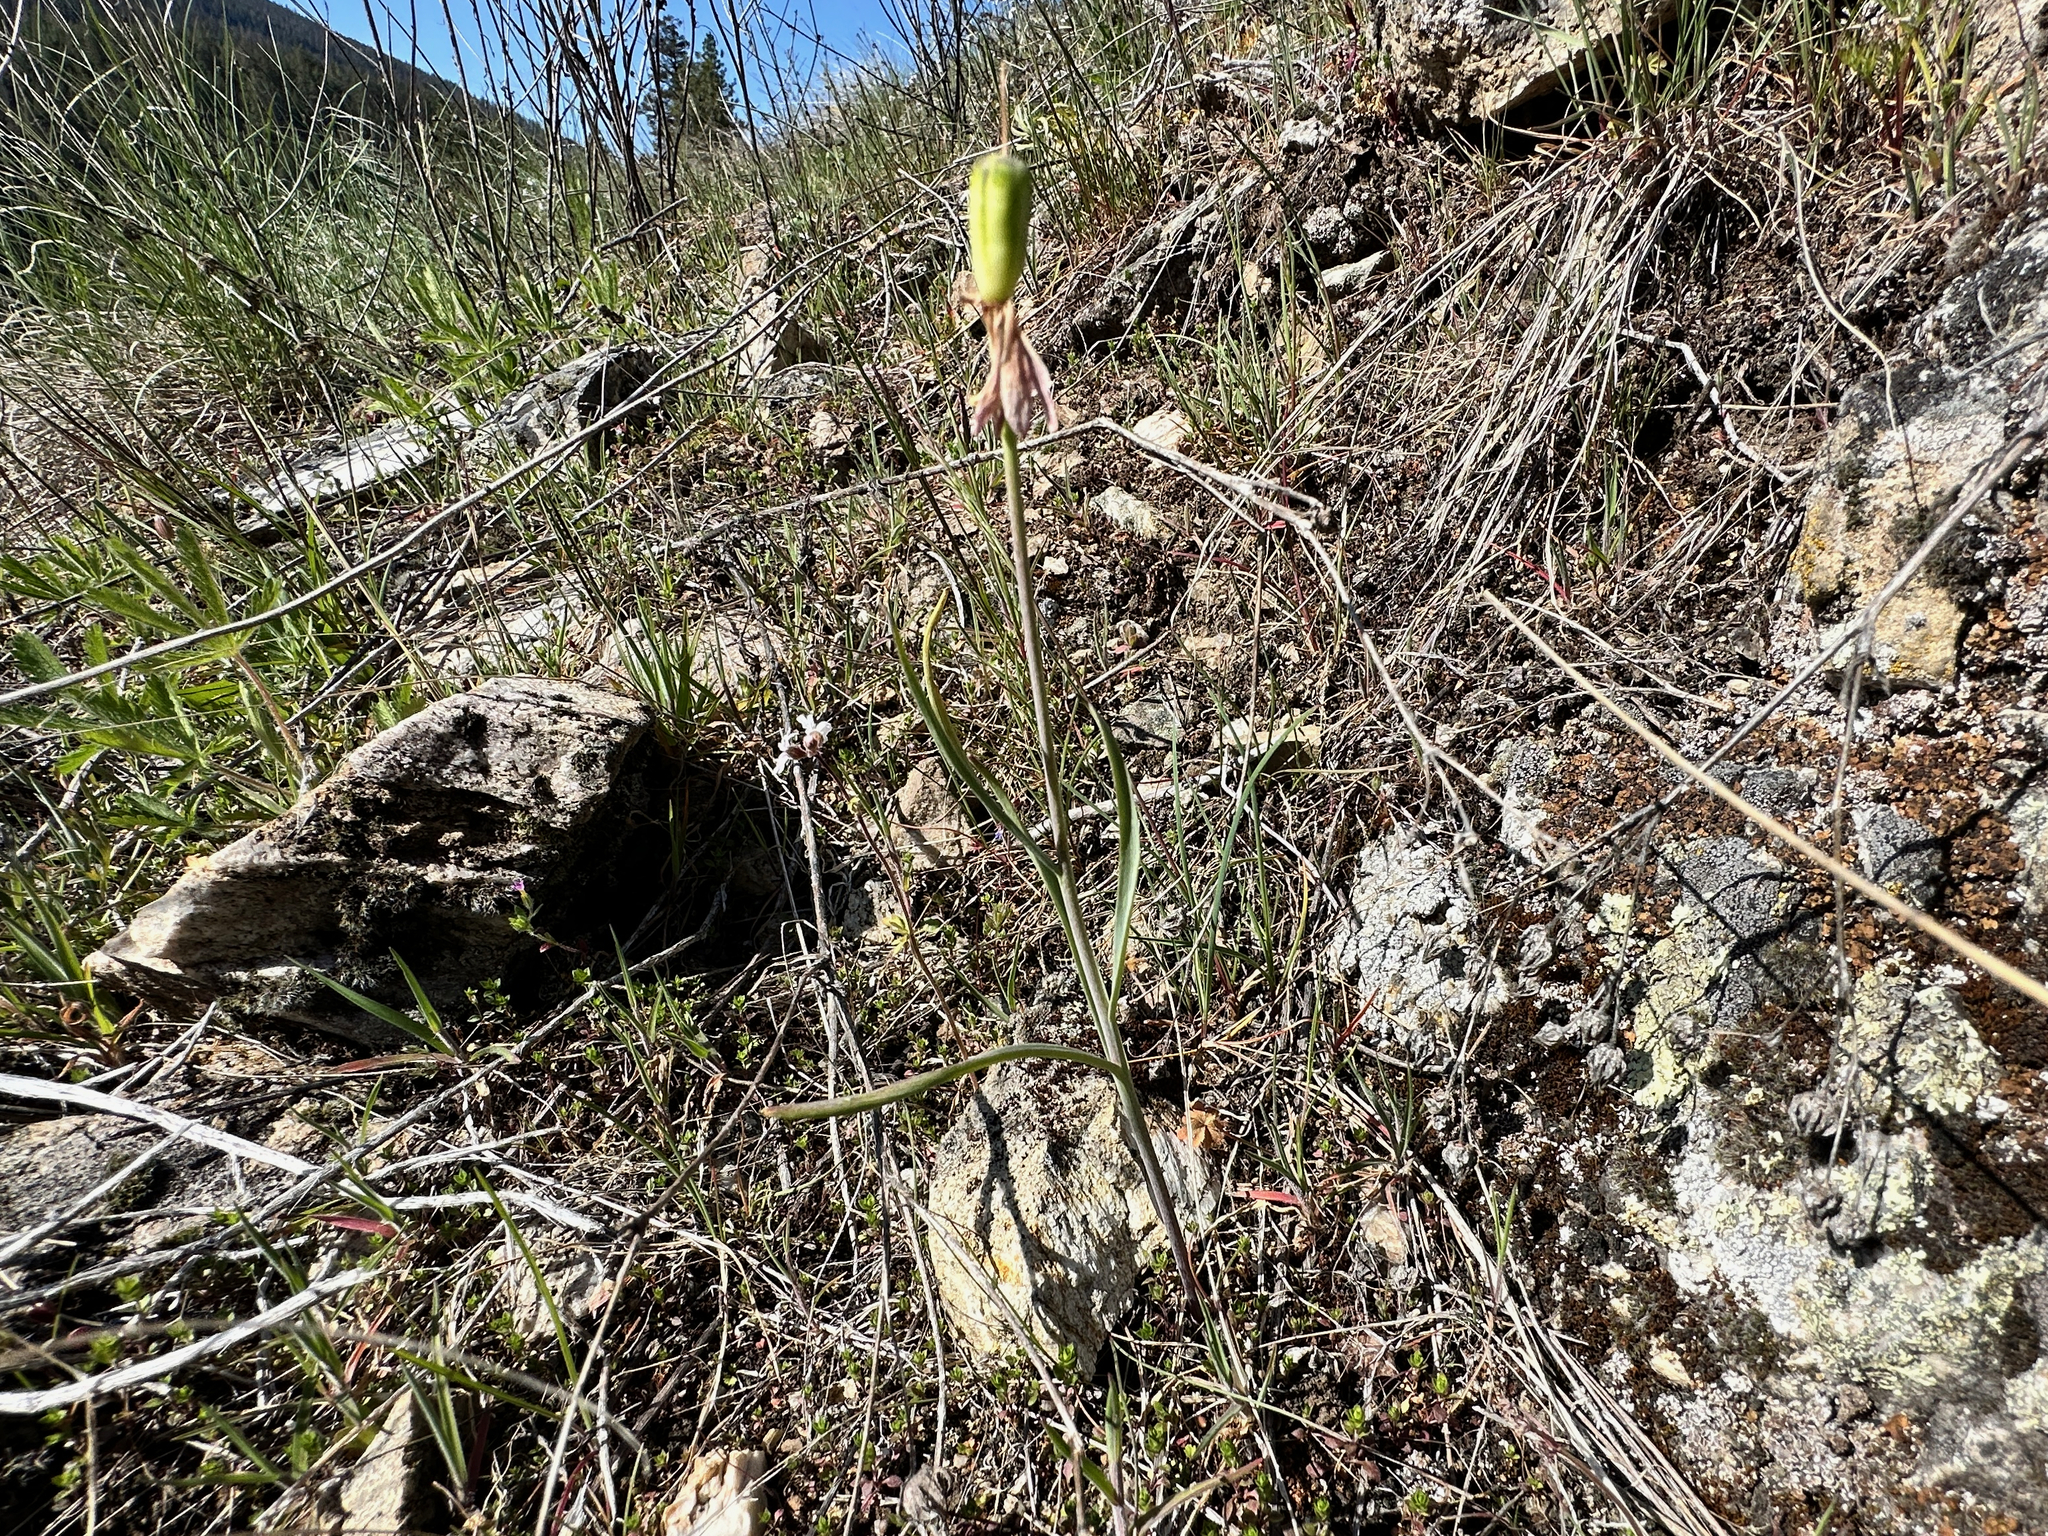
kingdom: Plantae
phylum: Tracheophyta
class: Liliopsida
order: Liliales
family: Liliaceae
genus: Fritillaria
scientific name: Fritillaria pudica
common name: Yellow fritillary
